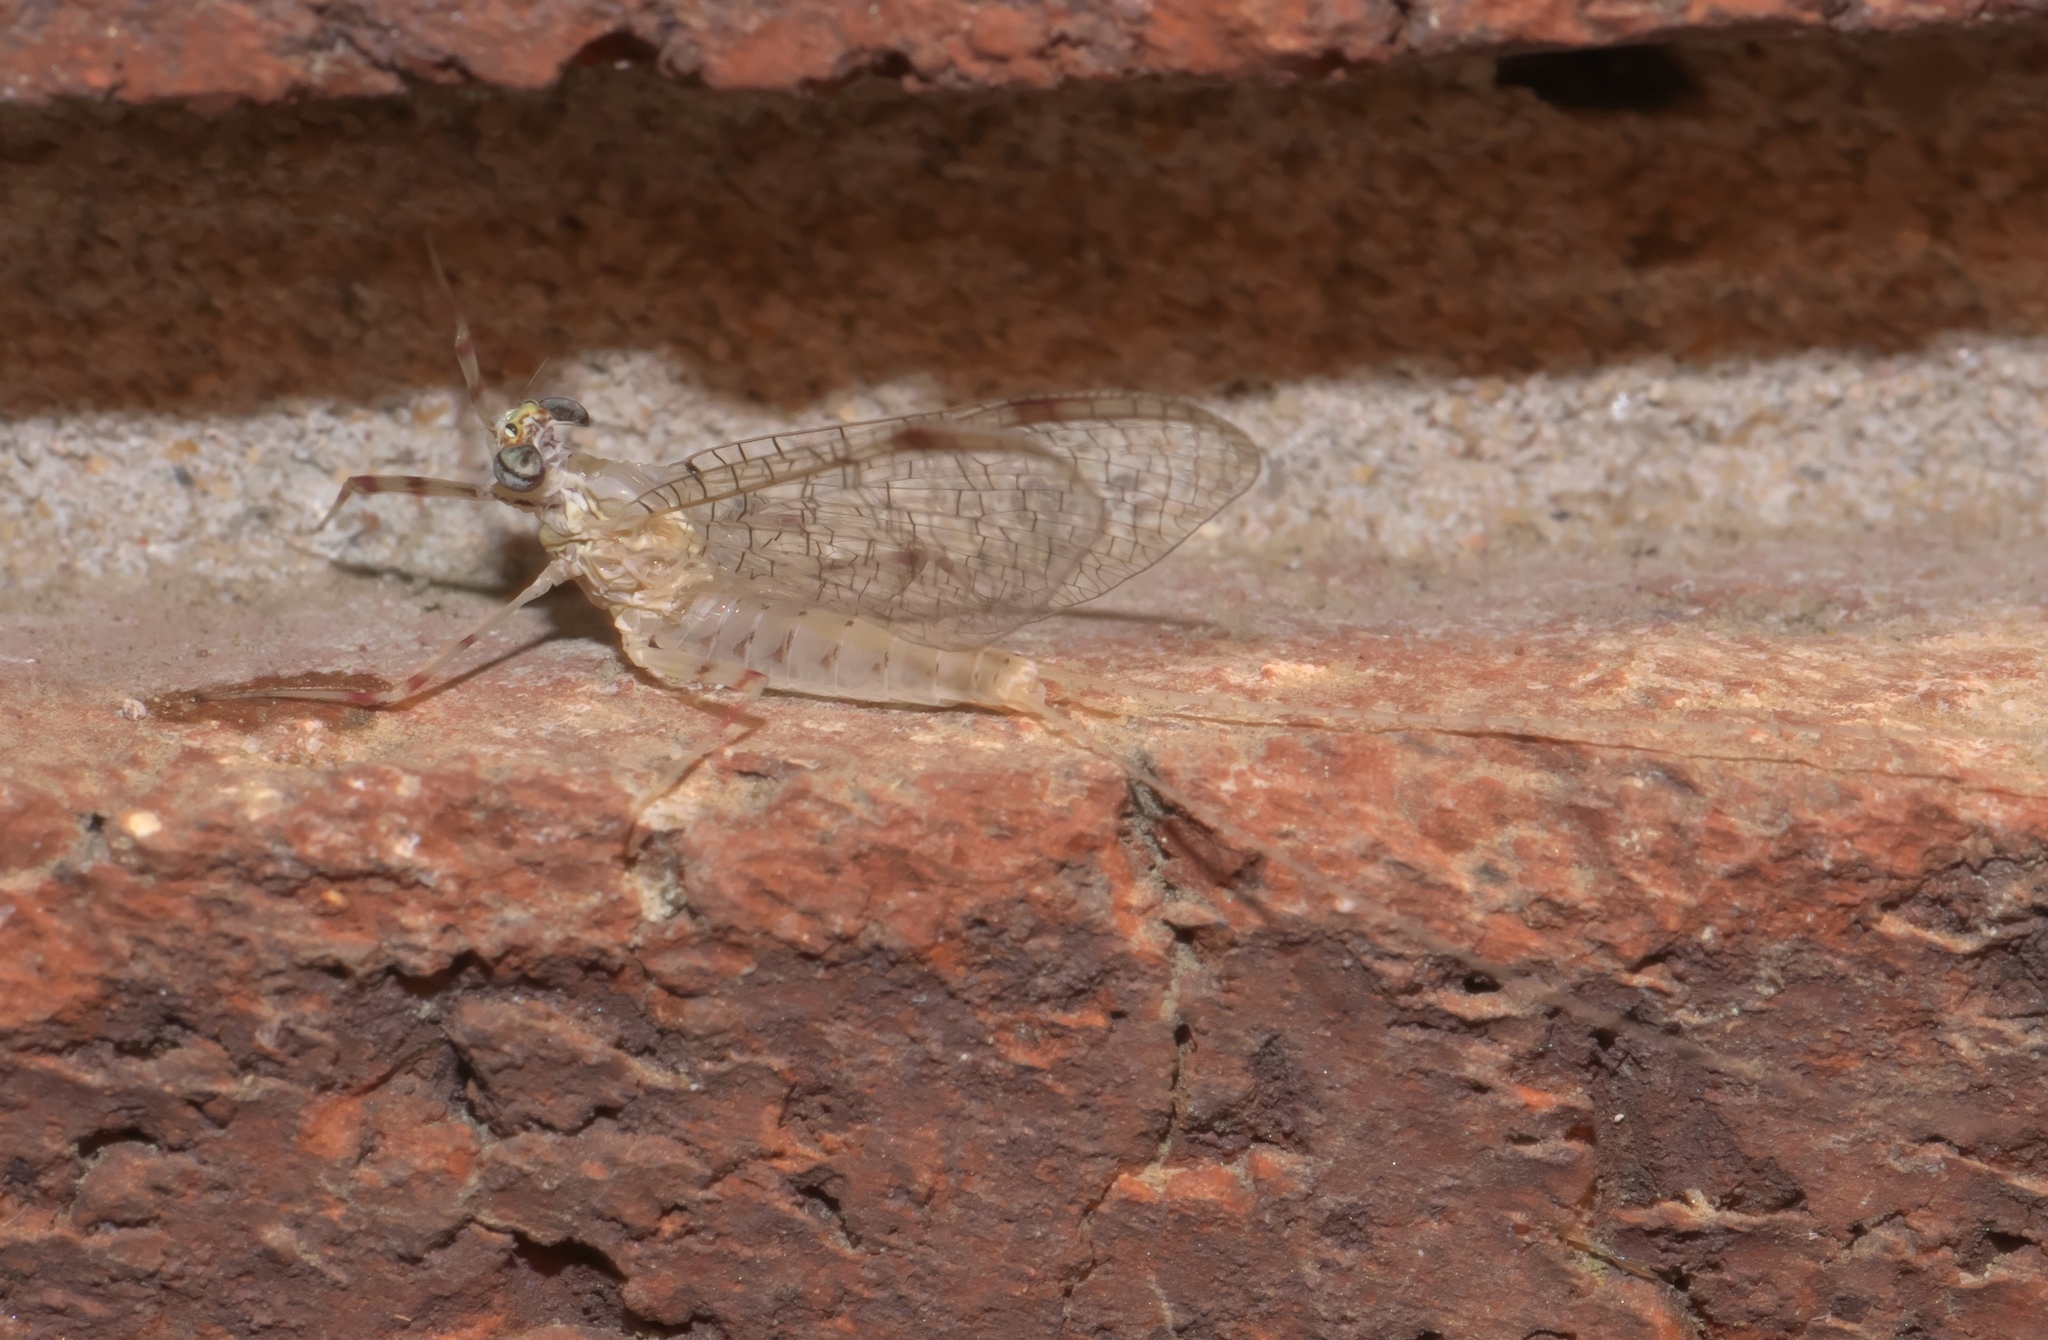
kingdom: Animalia
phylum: Arthropoda
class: Insecta
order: Ephemeroptera
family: Heptageniidae
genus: Stenonema
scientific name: Stenonema femoratum
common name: Dark cahill
